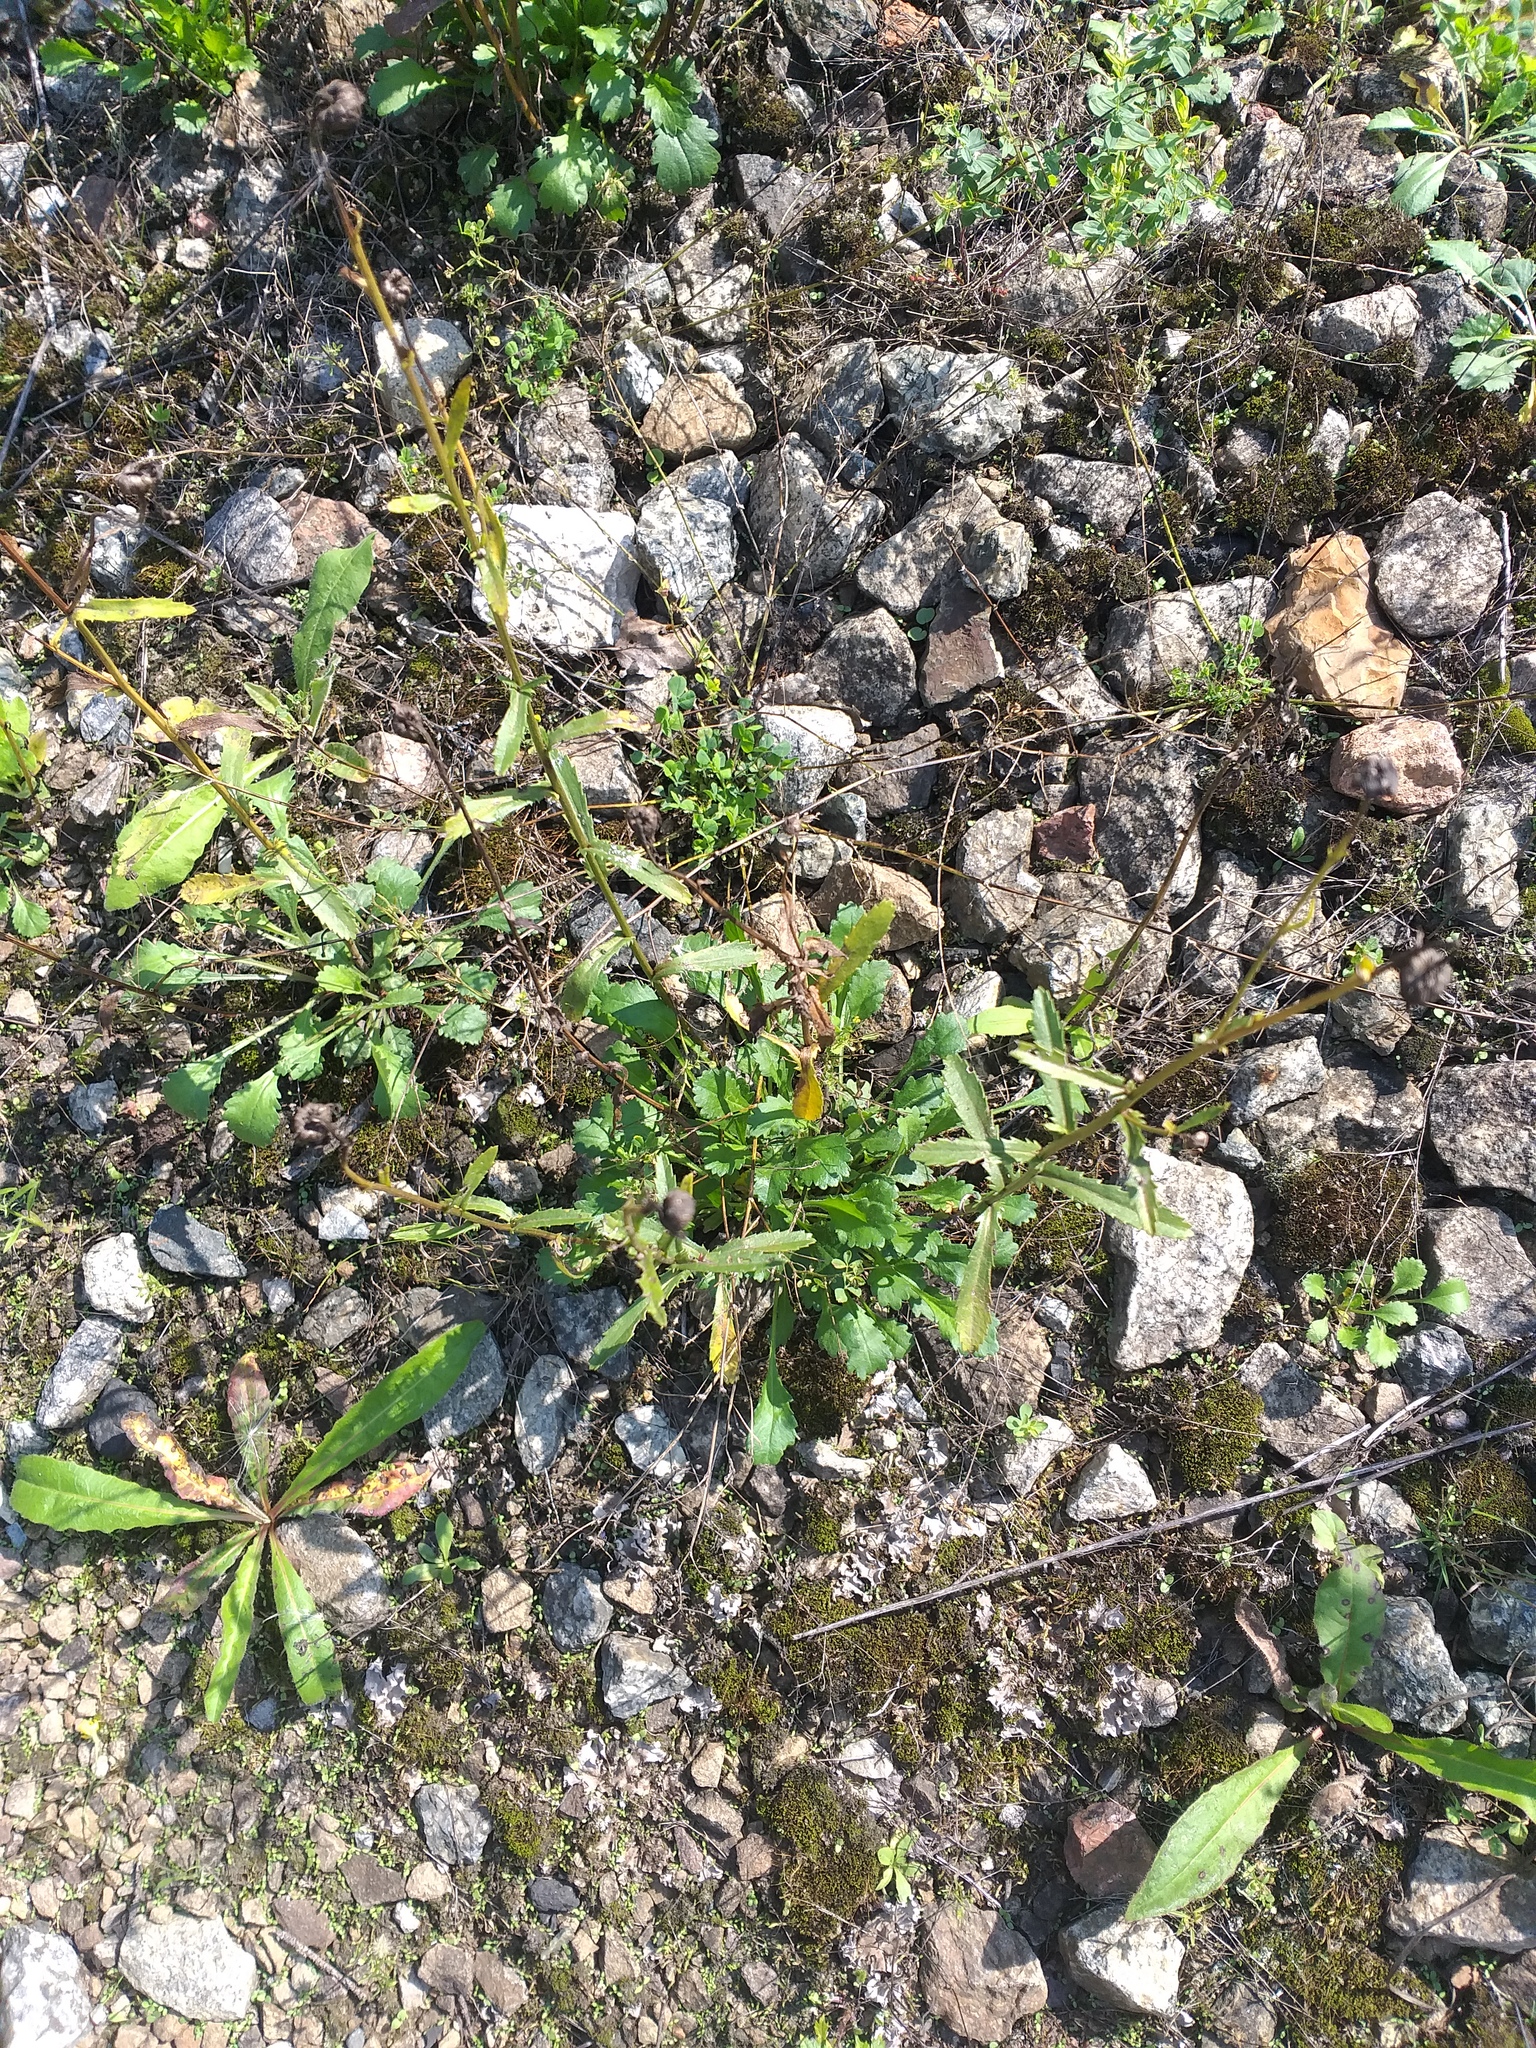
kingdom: Plantae
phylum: Tracheophyta
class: Magnoliopsida
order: Asterales
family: Asteraceae
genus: Leucanthemum
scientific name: Leucanthemum vulgare
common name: Oxeye daisy
